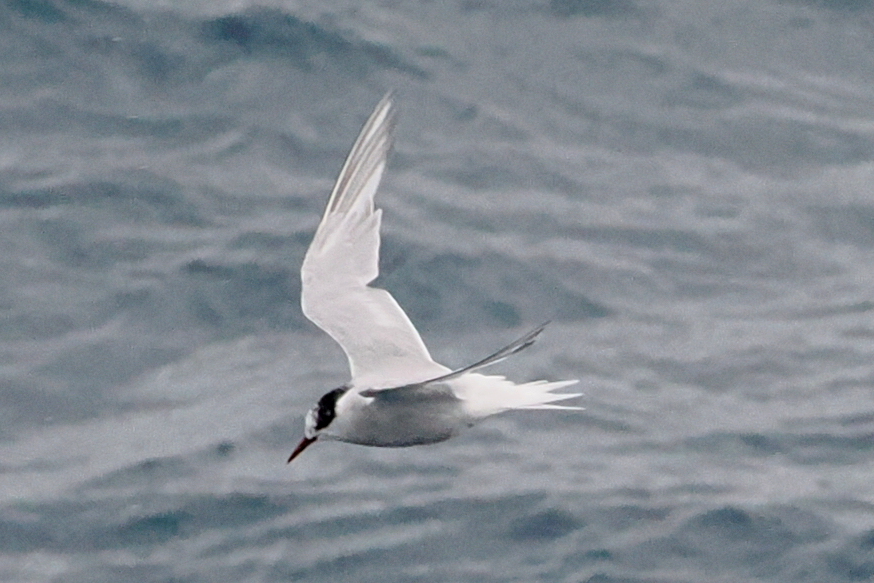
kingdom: Animalia
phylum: Chordata
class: Aves
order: Charadriiformes
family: Laridae
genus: Sterna
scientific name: Sterna vittata
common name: Antarctic tern
